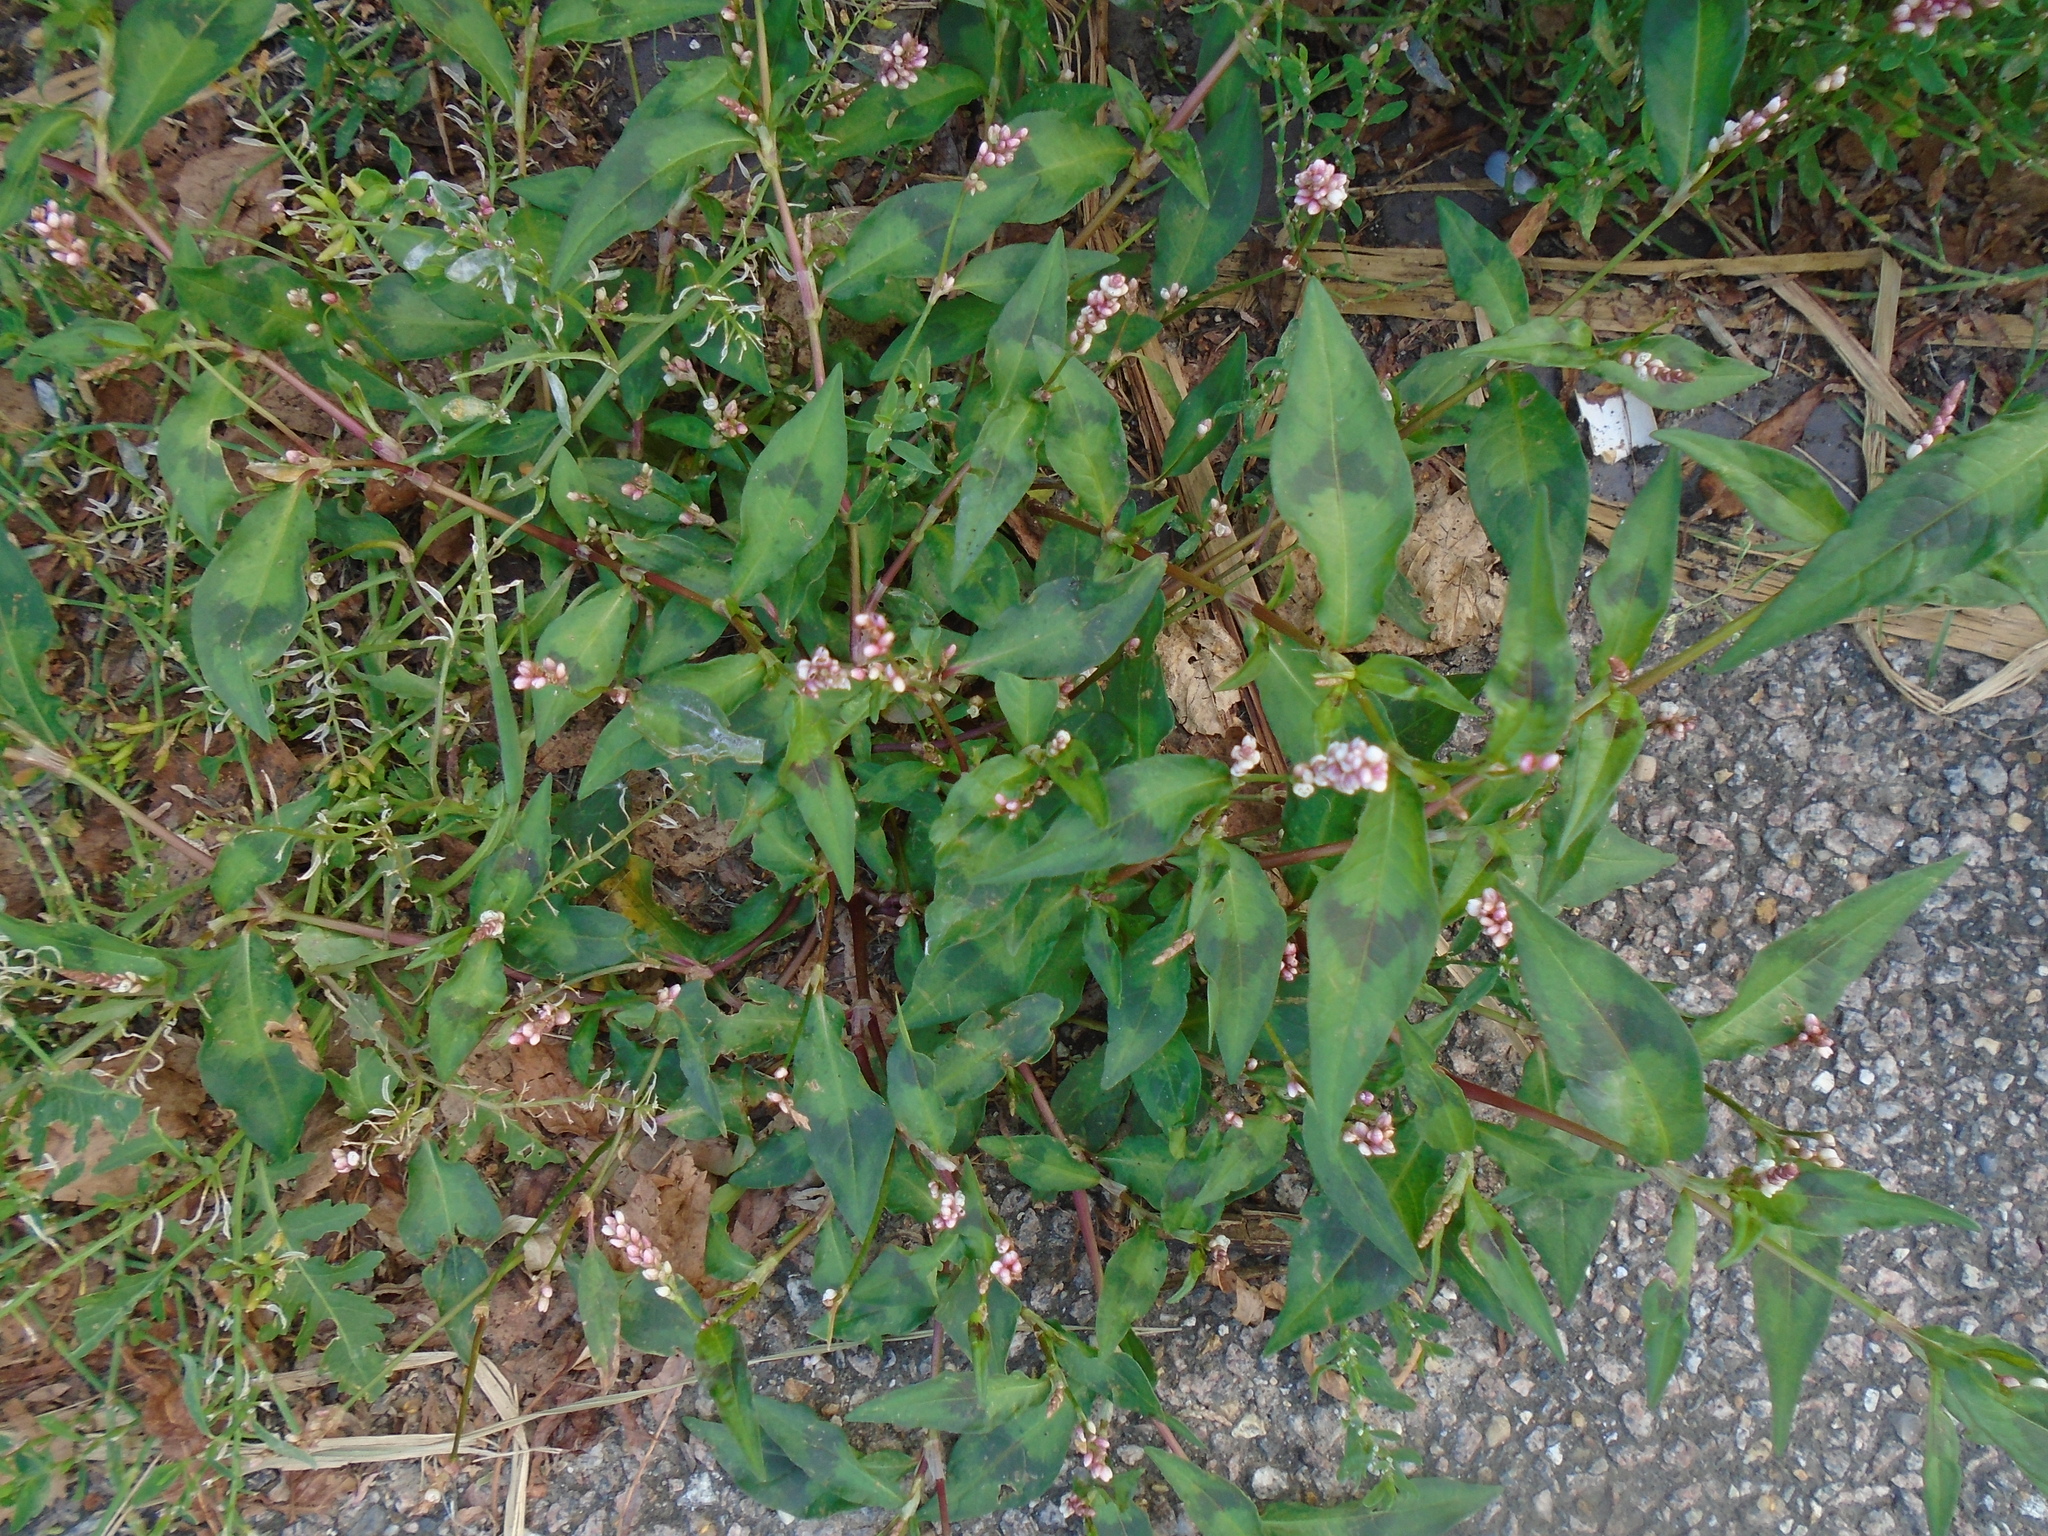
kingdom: Plantae
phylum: Tracheophyta
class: Magnoliopsida
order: Caryophyllales
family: Polygonaceae
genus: Persicaria
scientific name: Persicaria maculosa
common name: Redshank
